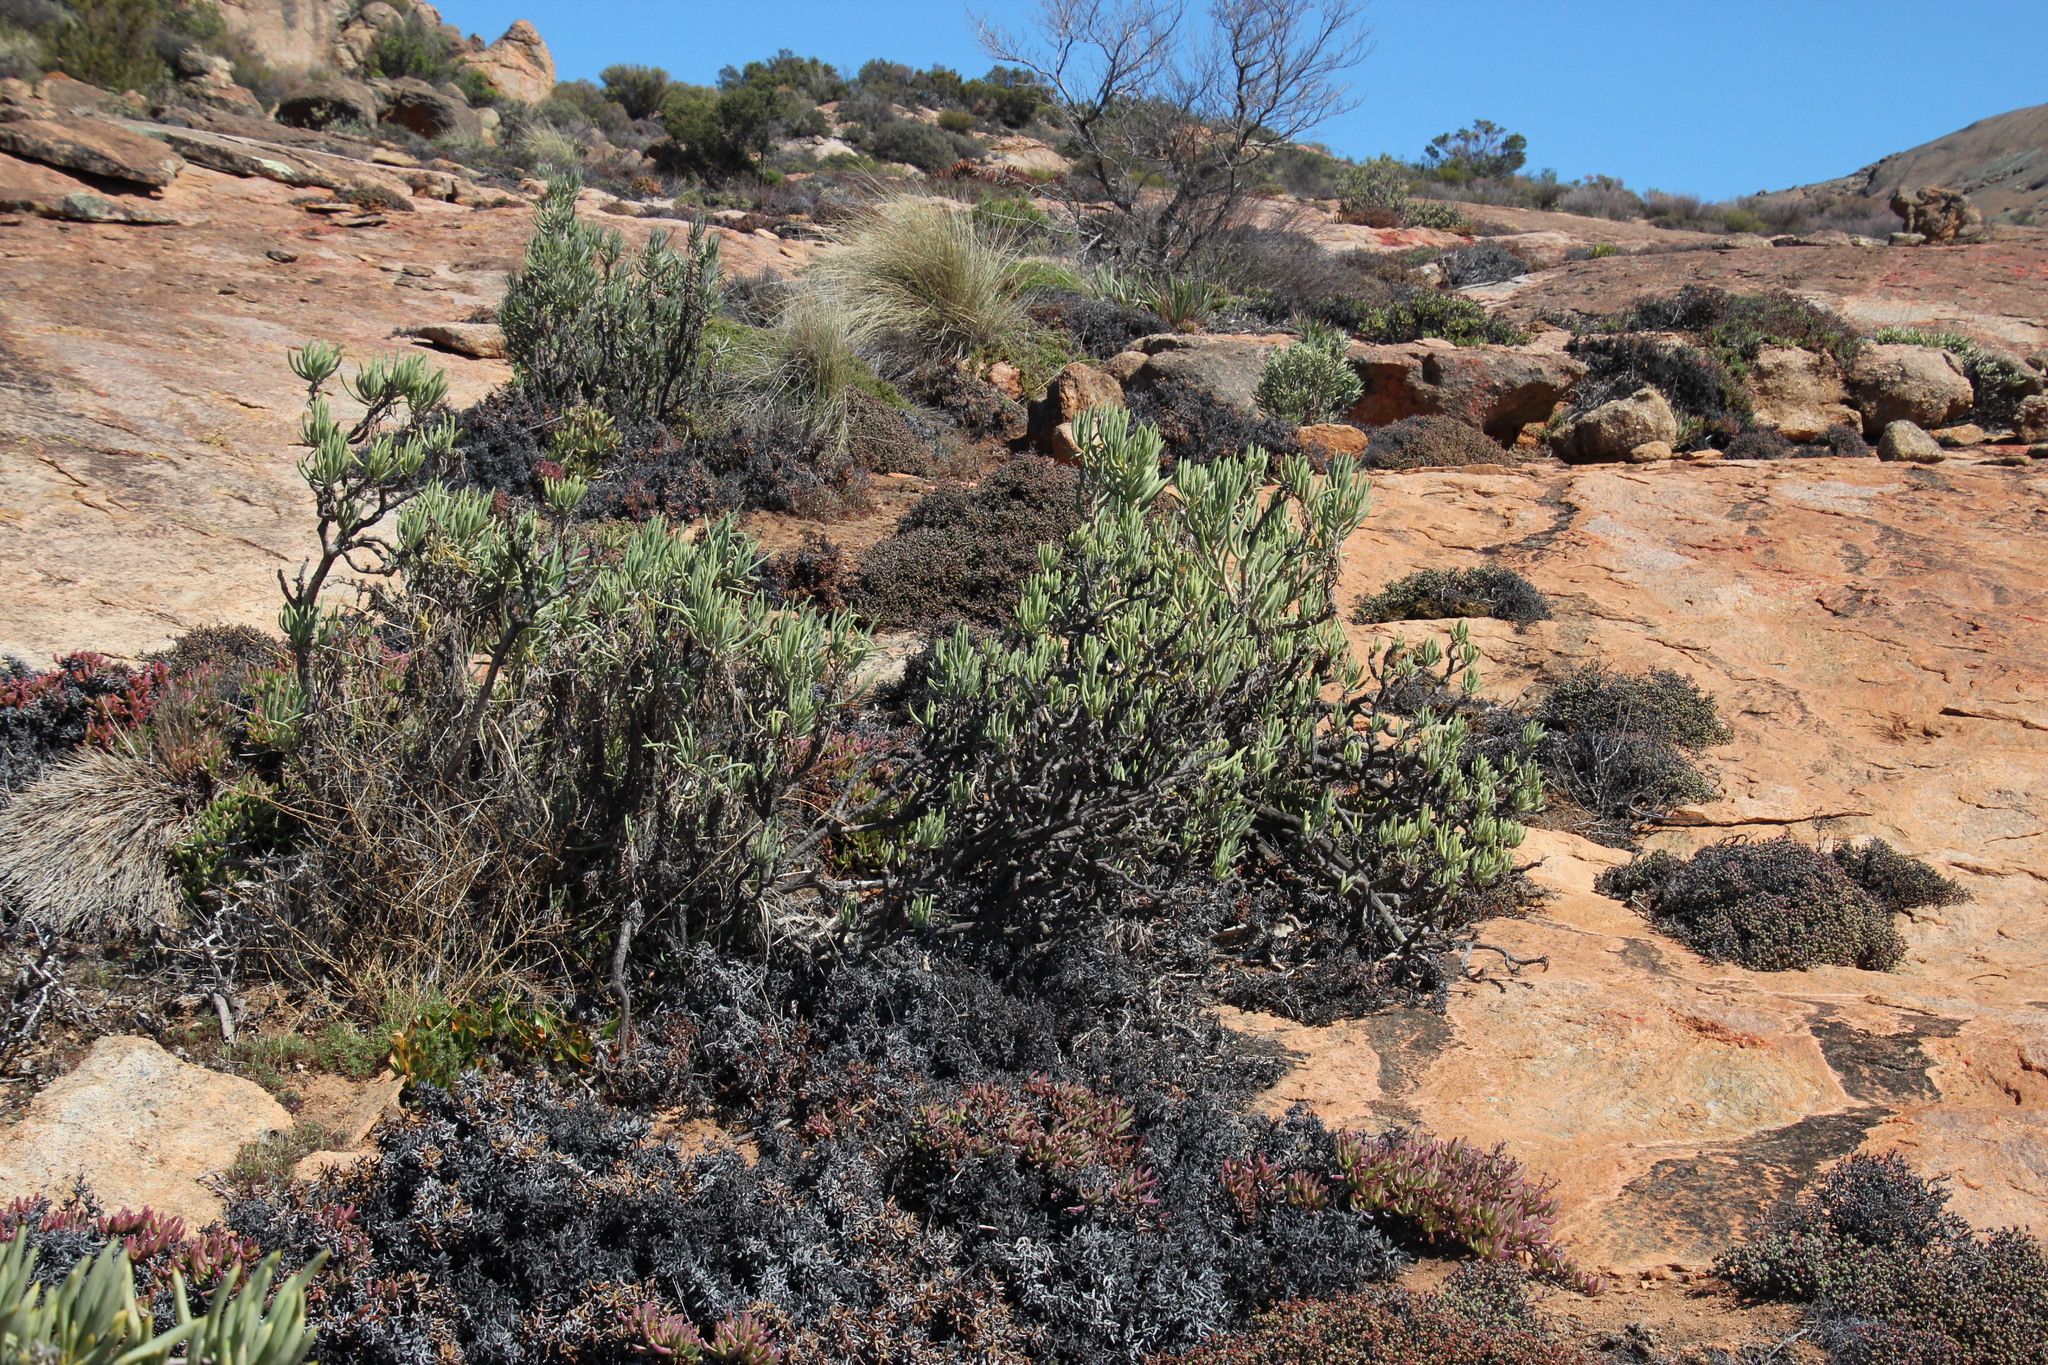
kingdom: Plantae
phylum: Tracheophyta
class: Magnoliopsida
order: Asterales
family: Asteraceae
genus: Curio
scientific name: Curio corymbifer
